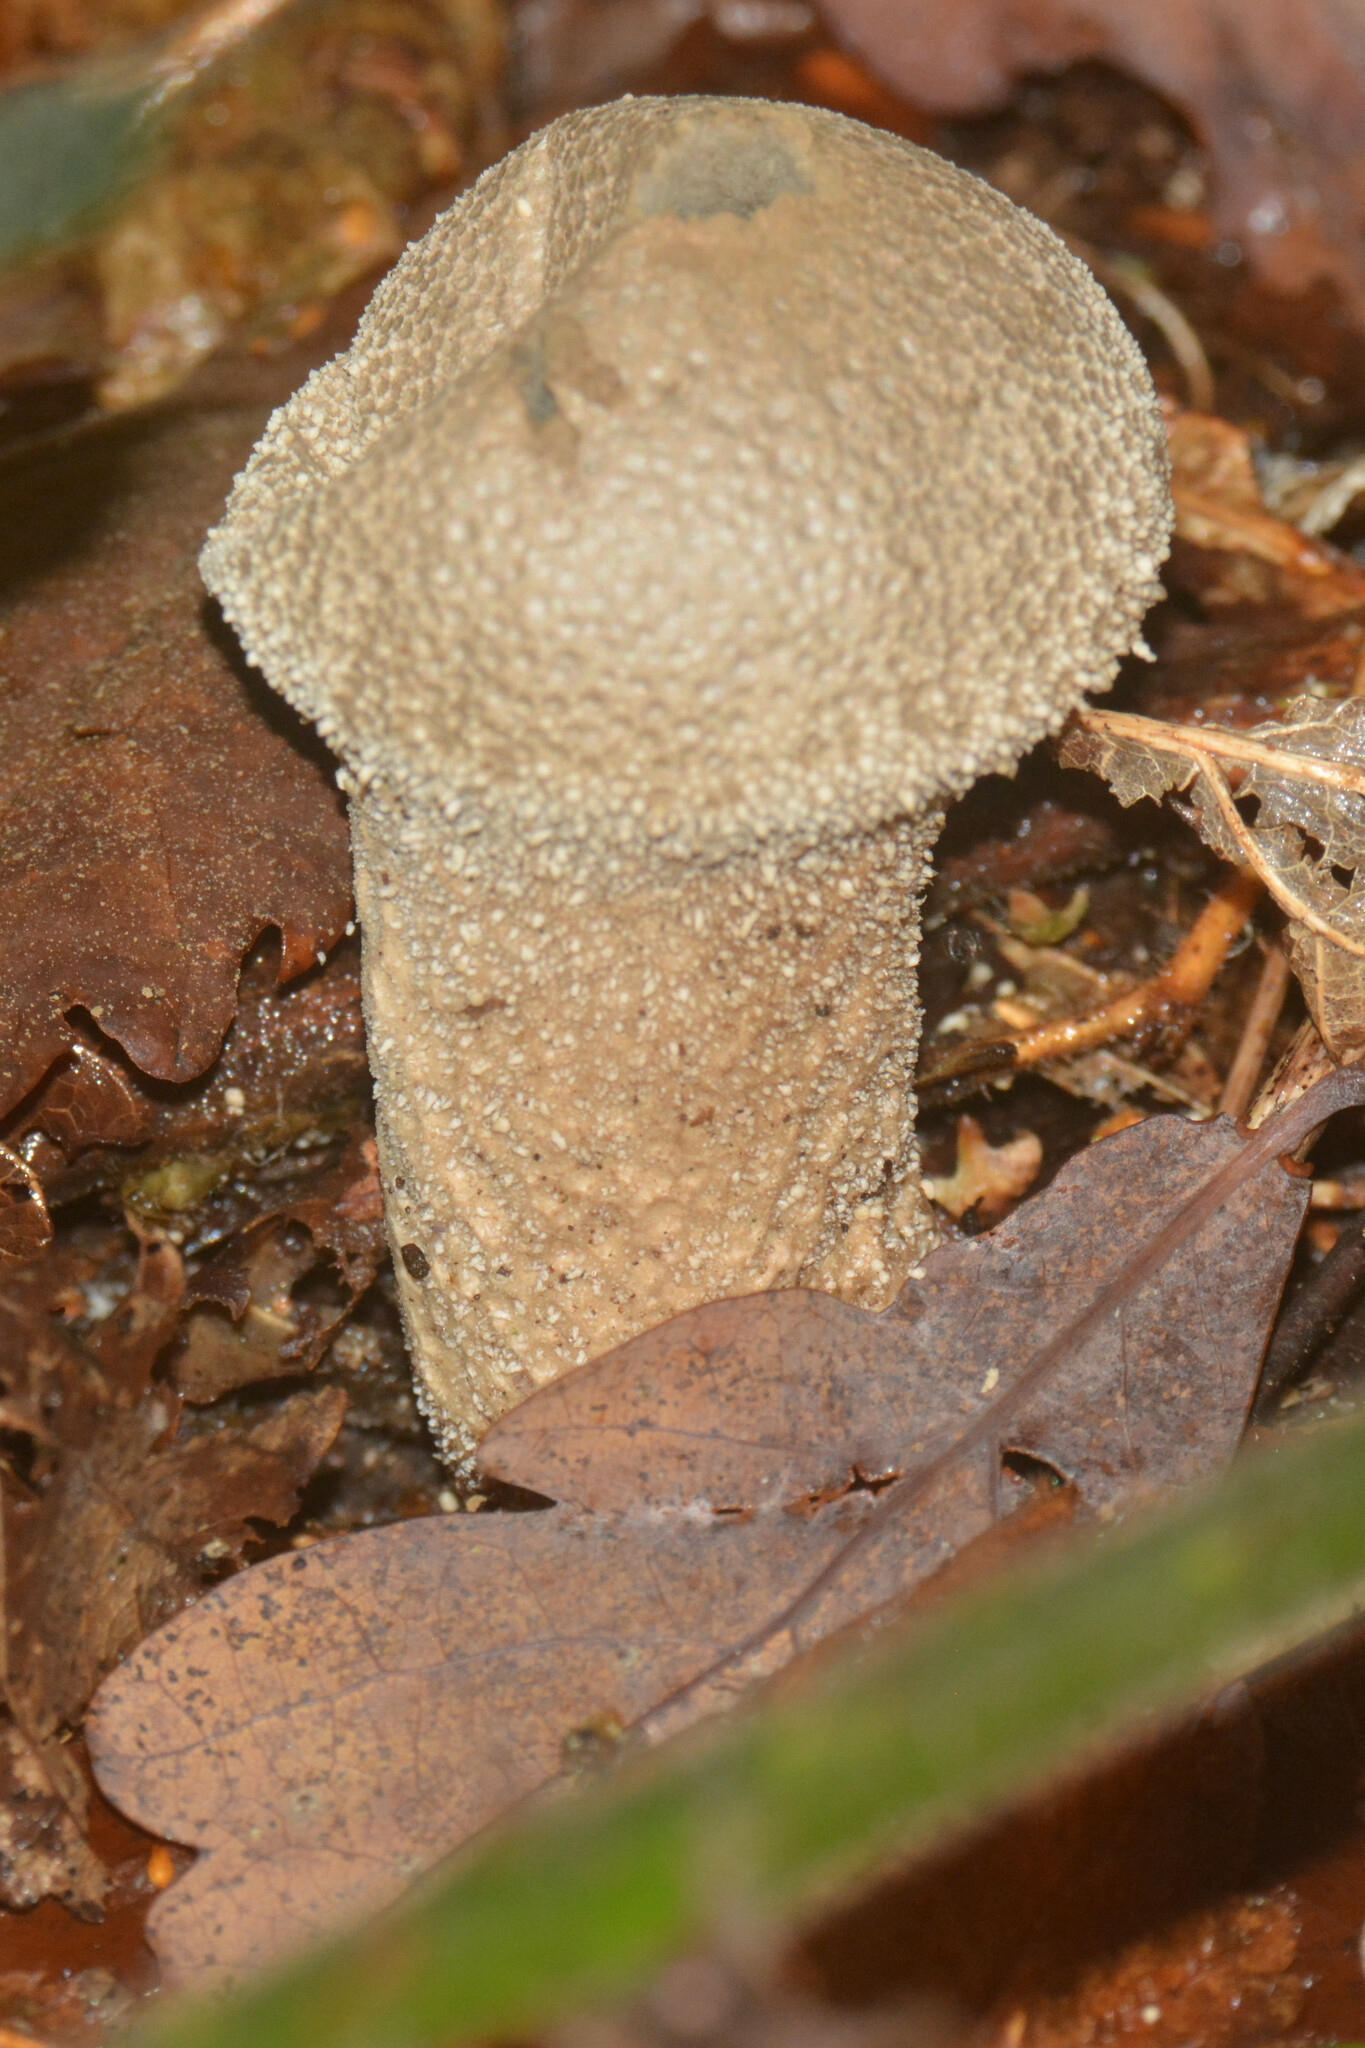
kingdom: Fungi
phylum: Basidiomycota
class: Agaricomycetes
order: Agaricales
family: Lycoperdaceae
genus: Lycoperdon
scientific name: Lycoperdon perlatum
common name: Common puffball
